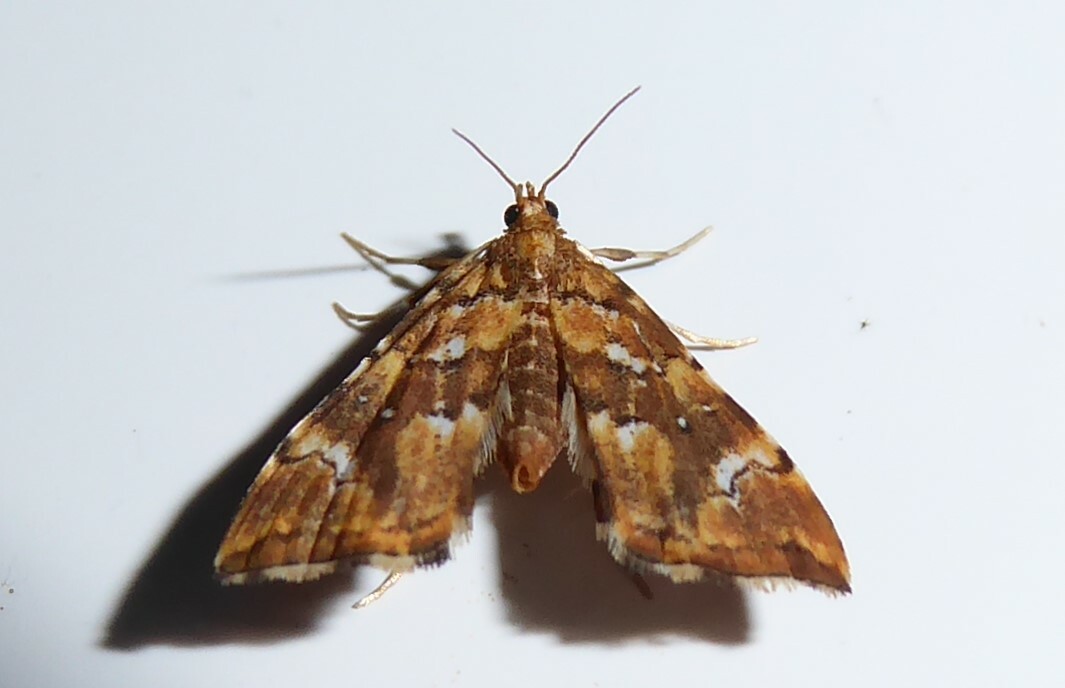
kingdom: Animalia
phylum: Arthropoda
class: Insecta
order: Lepidoptera
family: Pyralidae
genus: Musotima
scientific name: Musotima nitidalis
